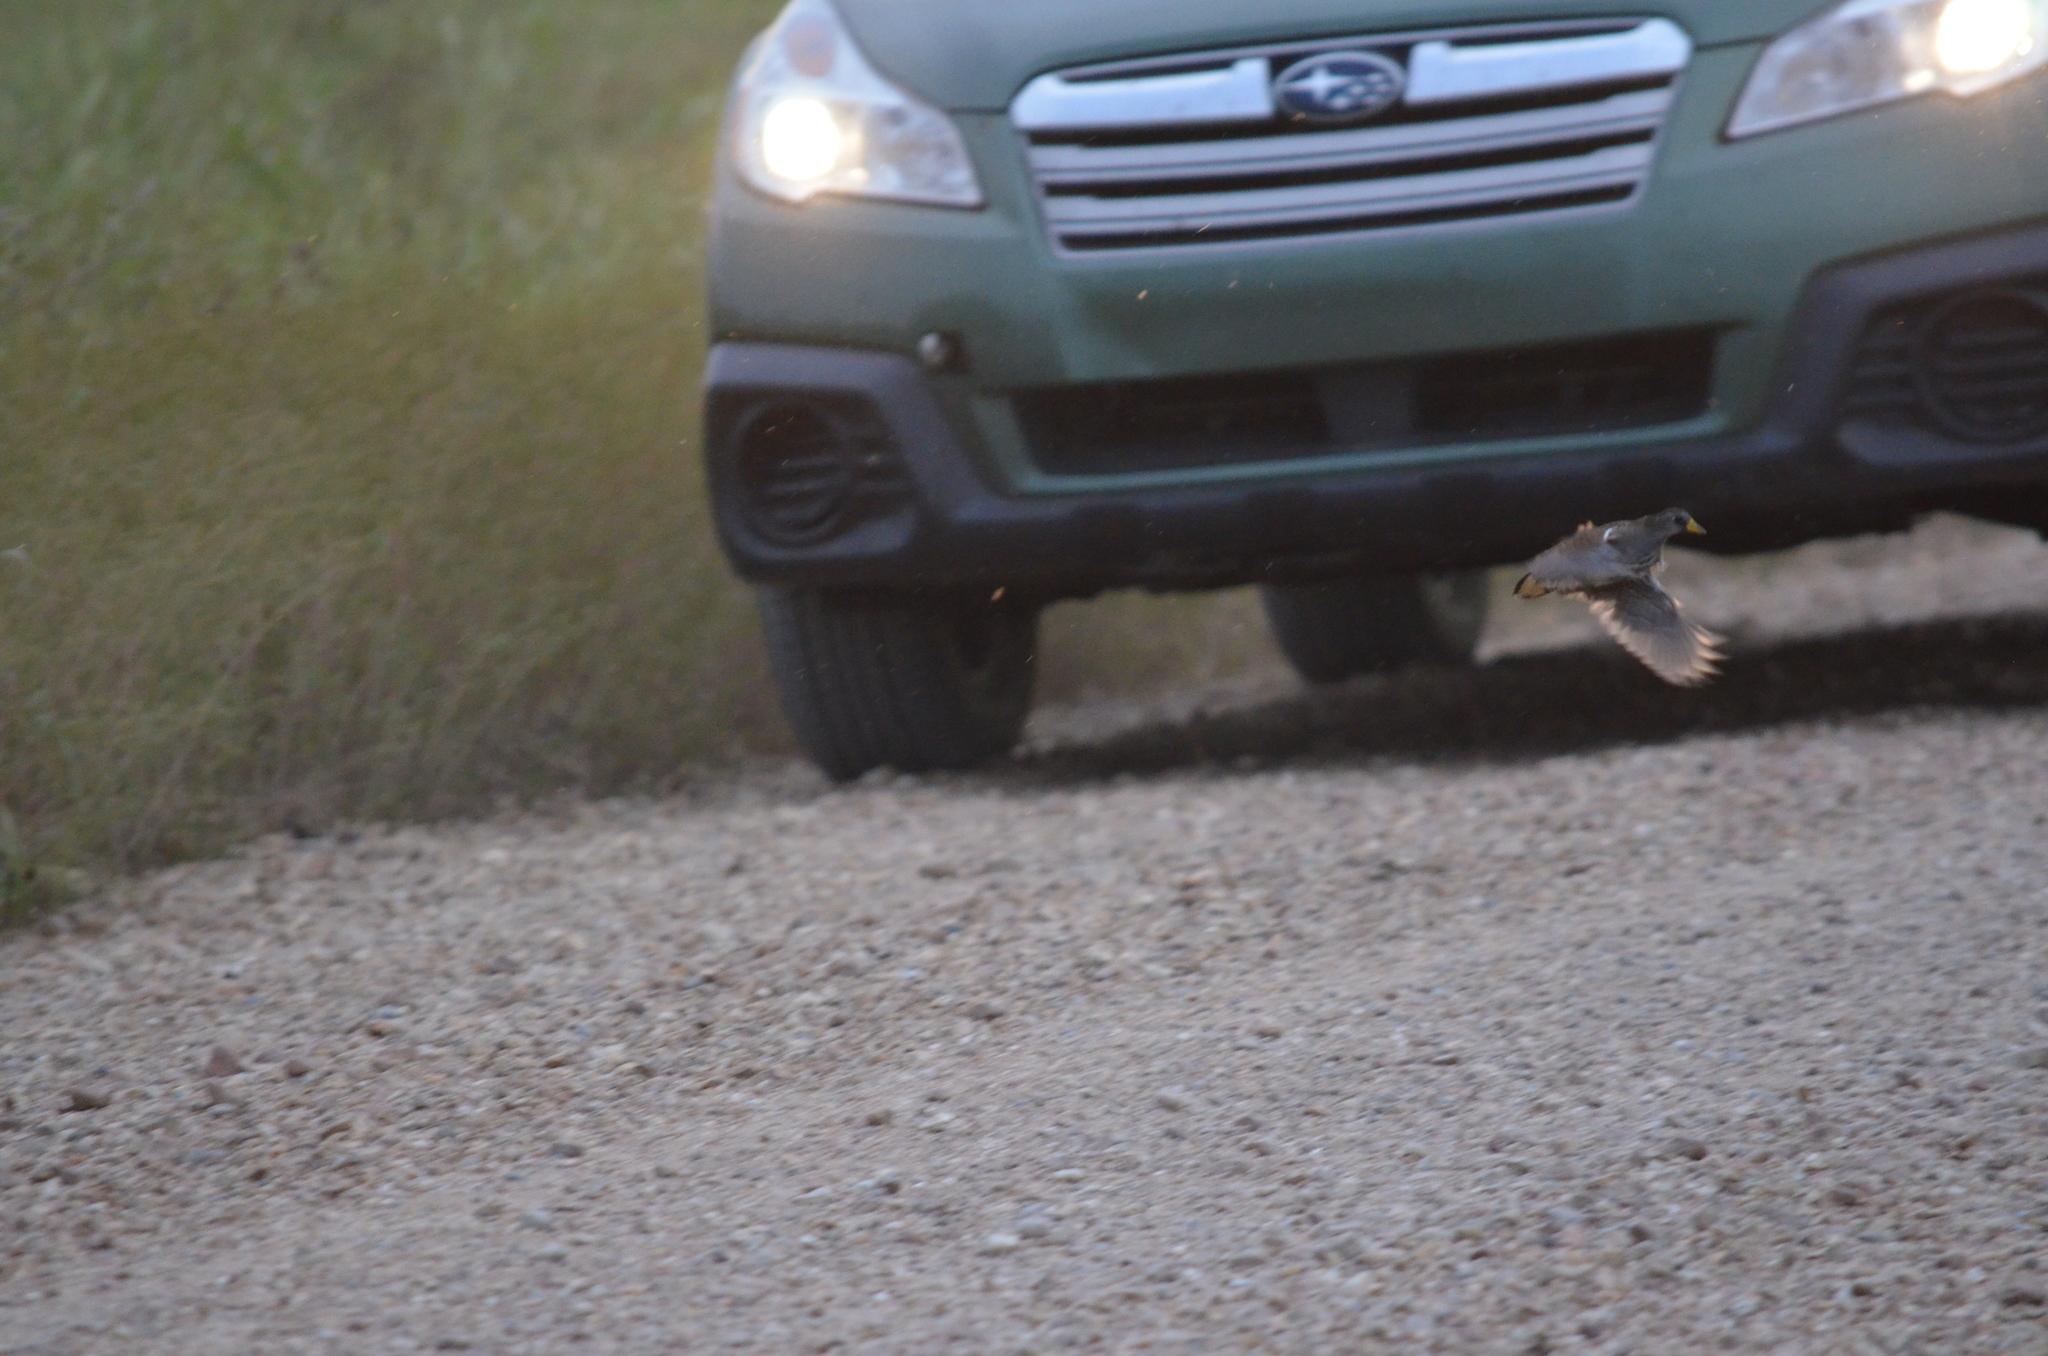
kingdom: Animalia
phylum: Chordata
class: Aves
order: Gruiformes
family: Rallidae
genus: Porzana
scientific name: Porzana carolina
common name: Sora
